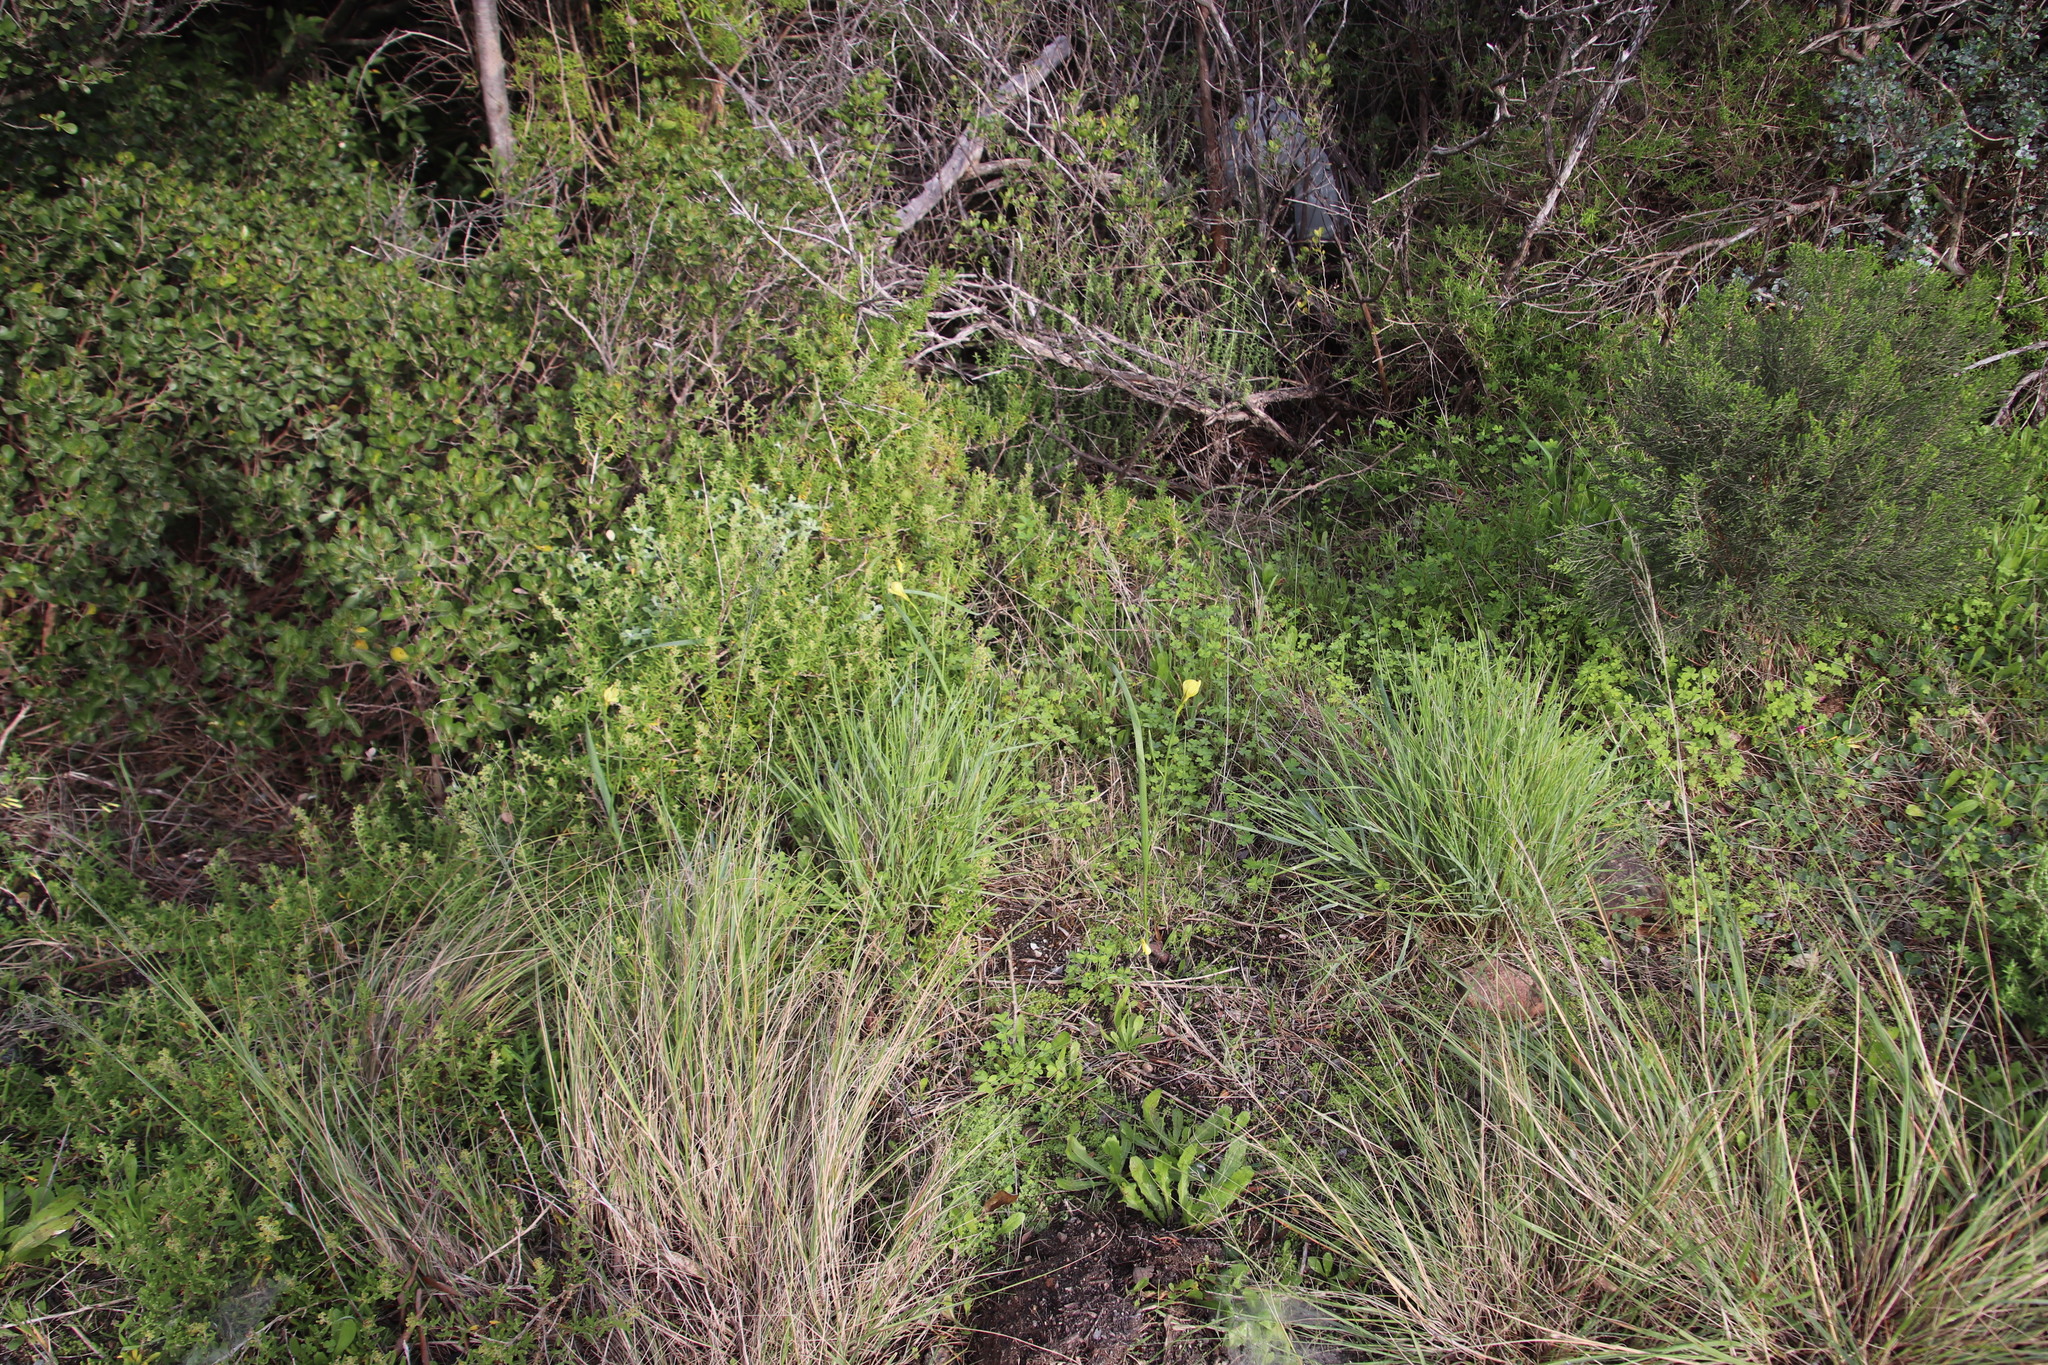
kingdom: Plantae
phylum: Tracheophyta
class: Liliopsida
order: Asparagales
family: Iridaceae
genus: Moraea
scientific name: Moraea collina
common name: Cape-tulip
